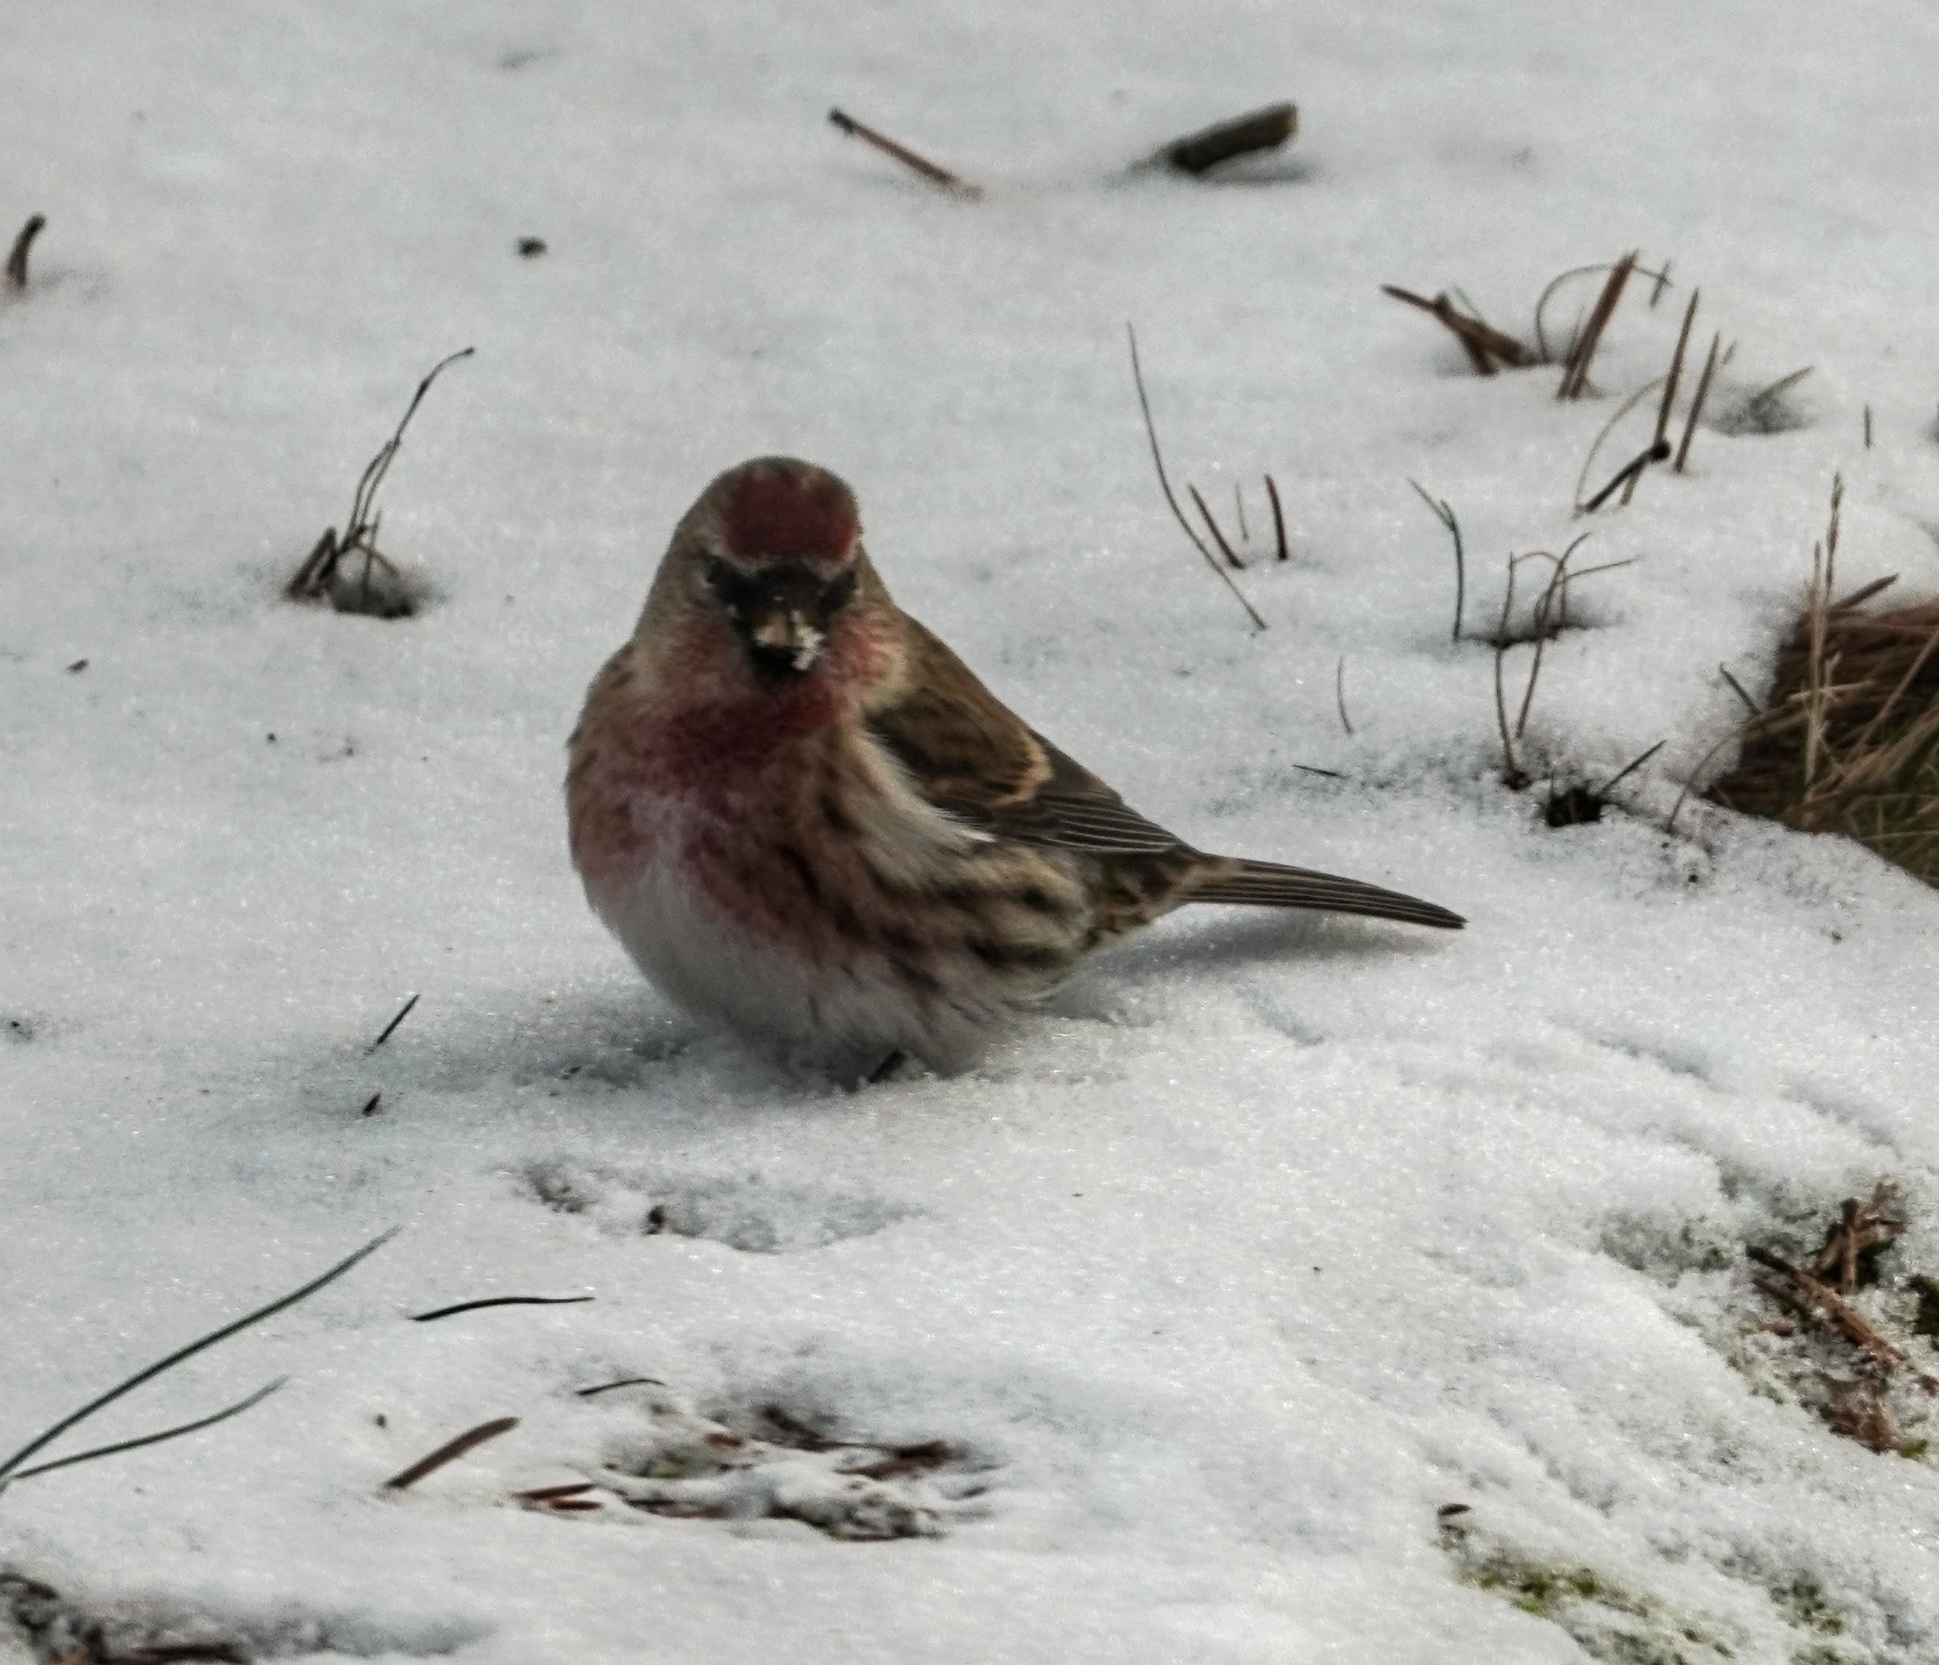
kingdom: Animalia
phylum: Chordata
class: Aves
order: Passeriformes
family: Fringillidae
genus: Acanthis
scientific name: Acanthis flammea
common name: Common redpoll
